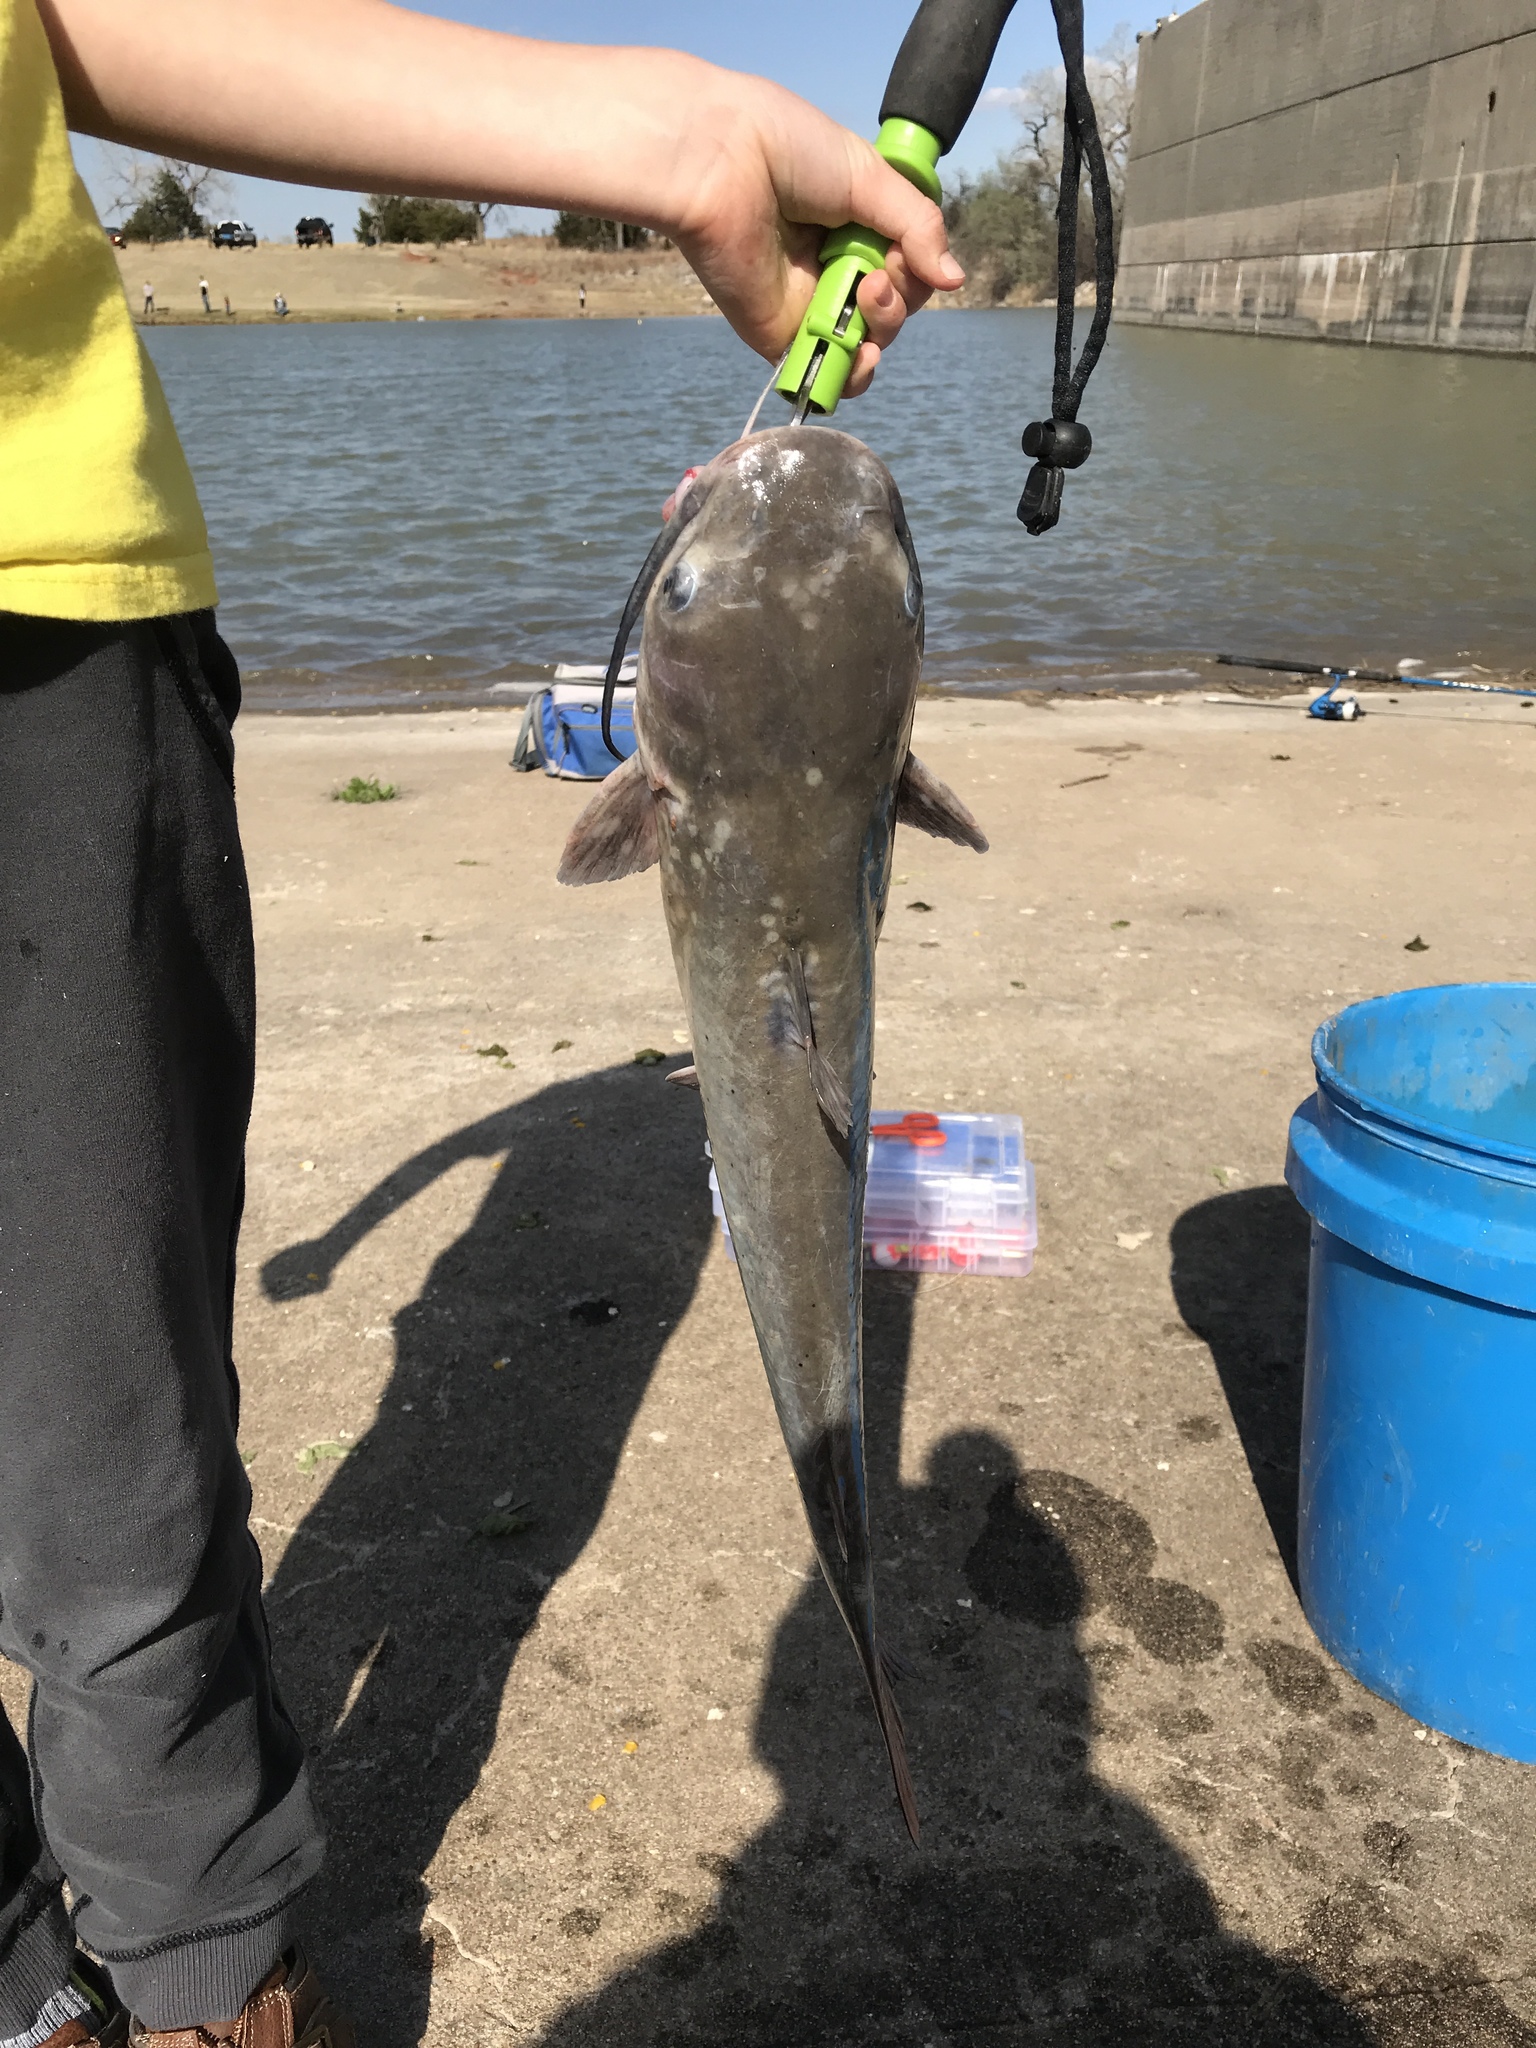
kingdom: Animalia
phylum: Chordata
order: Siluriformes
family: Ictaluridae
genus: Ictalurus
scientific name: Ictalurus punctatus
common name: Channel catfish
